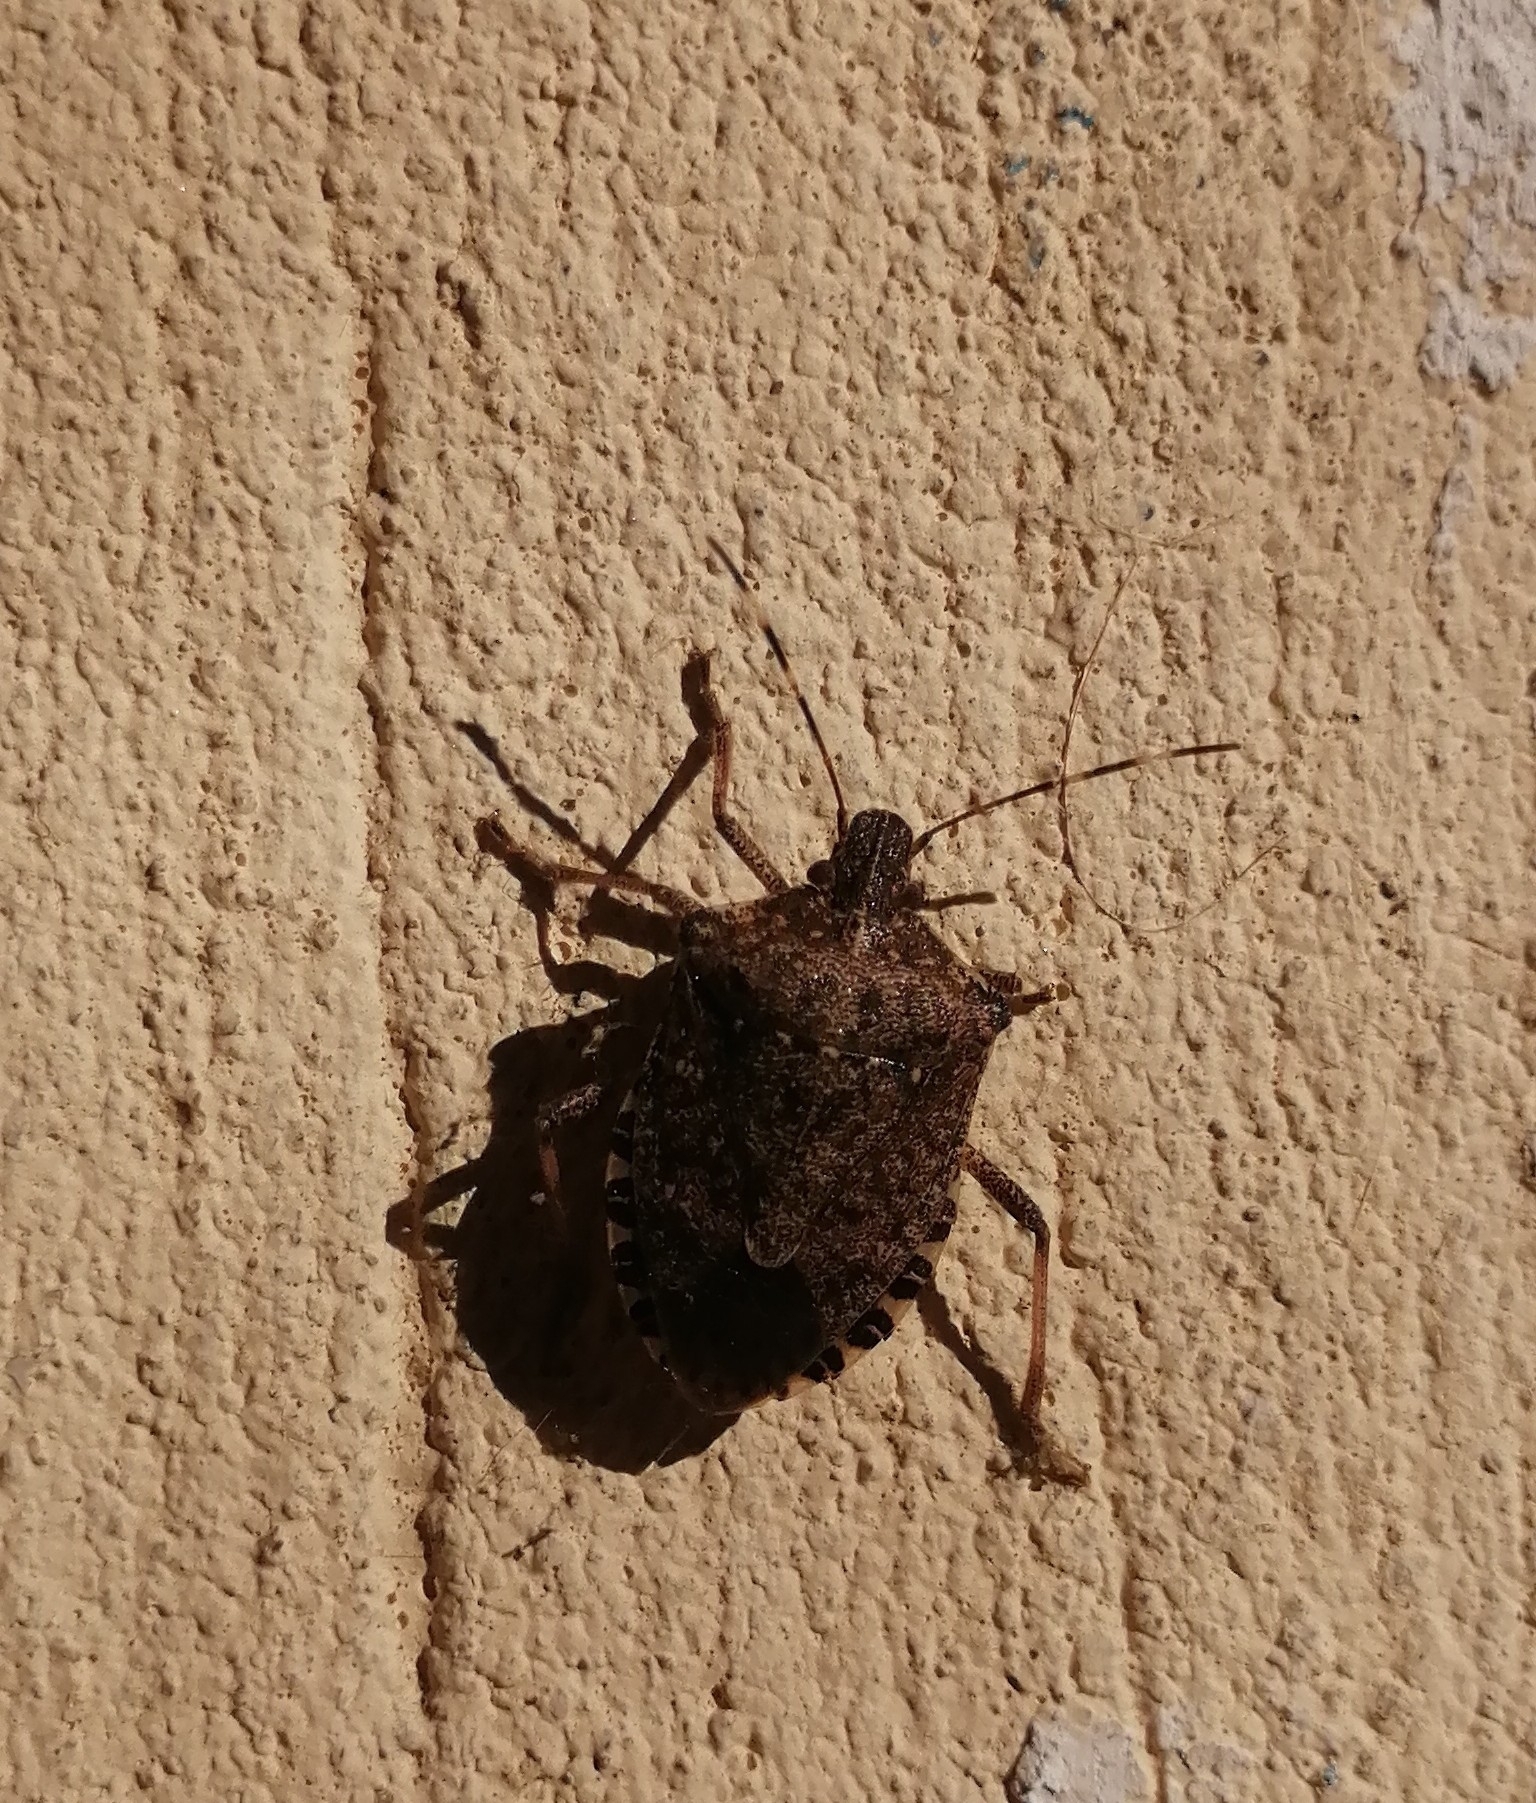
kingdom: Animalia
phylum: Arthropoda
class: Insecta
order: Hemiptera
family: Pentatomidae
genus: Halyomorpha
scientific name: Halyomorpha halys
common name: Brown marmorated stink bug
